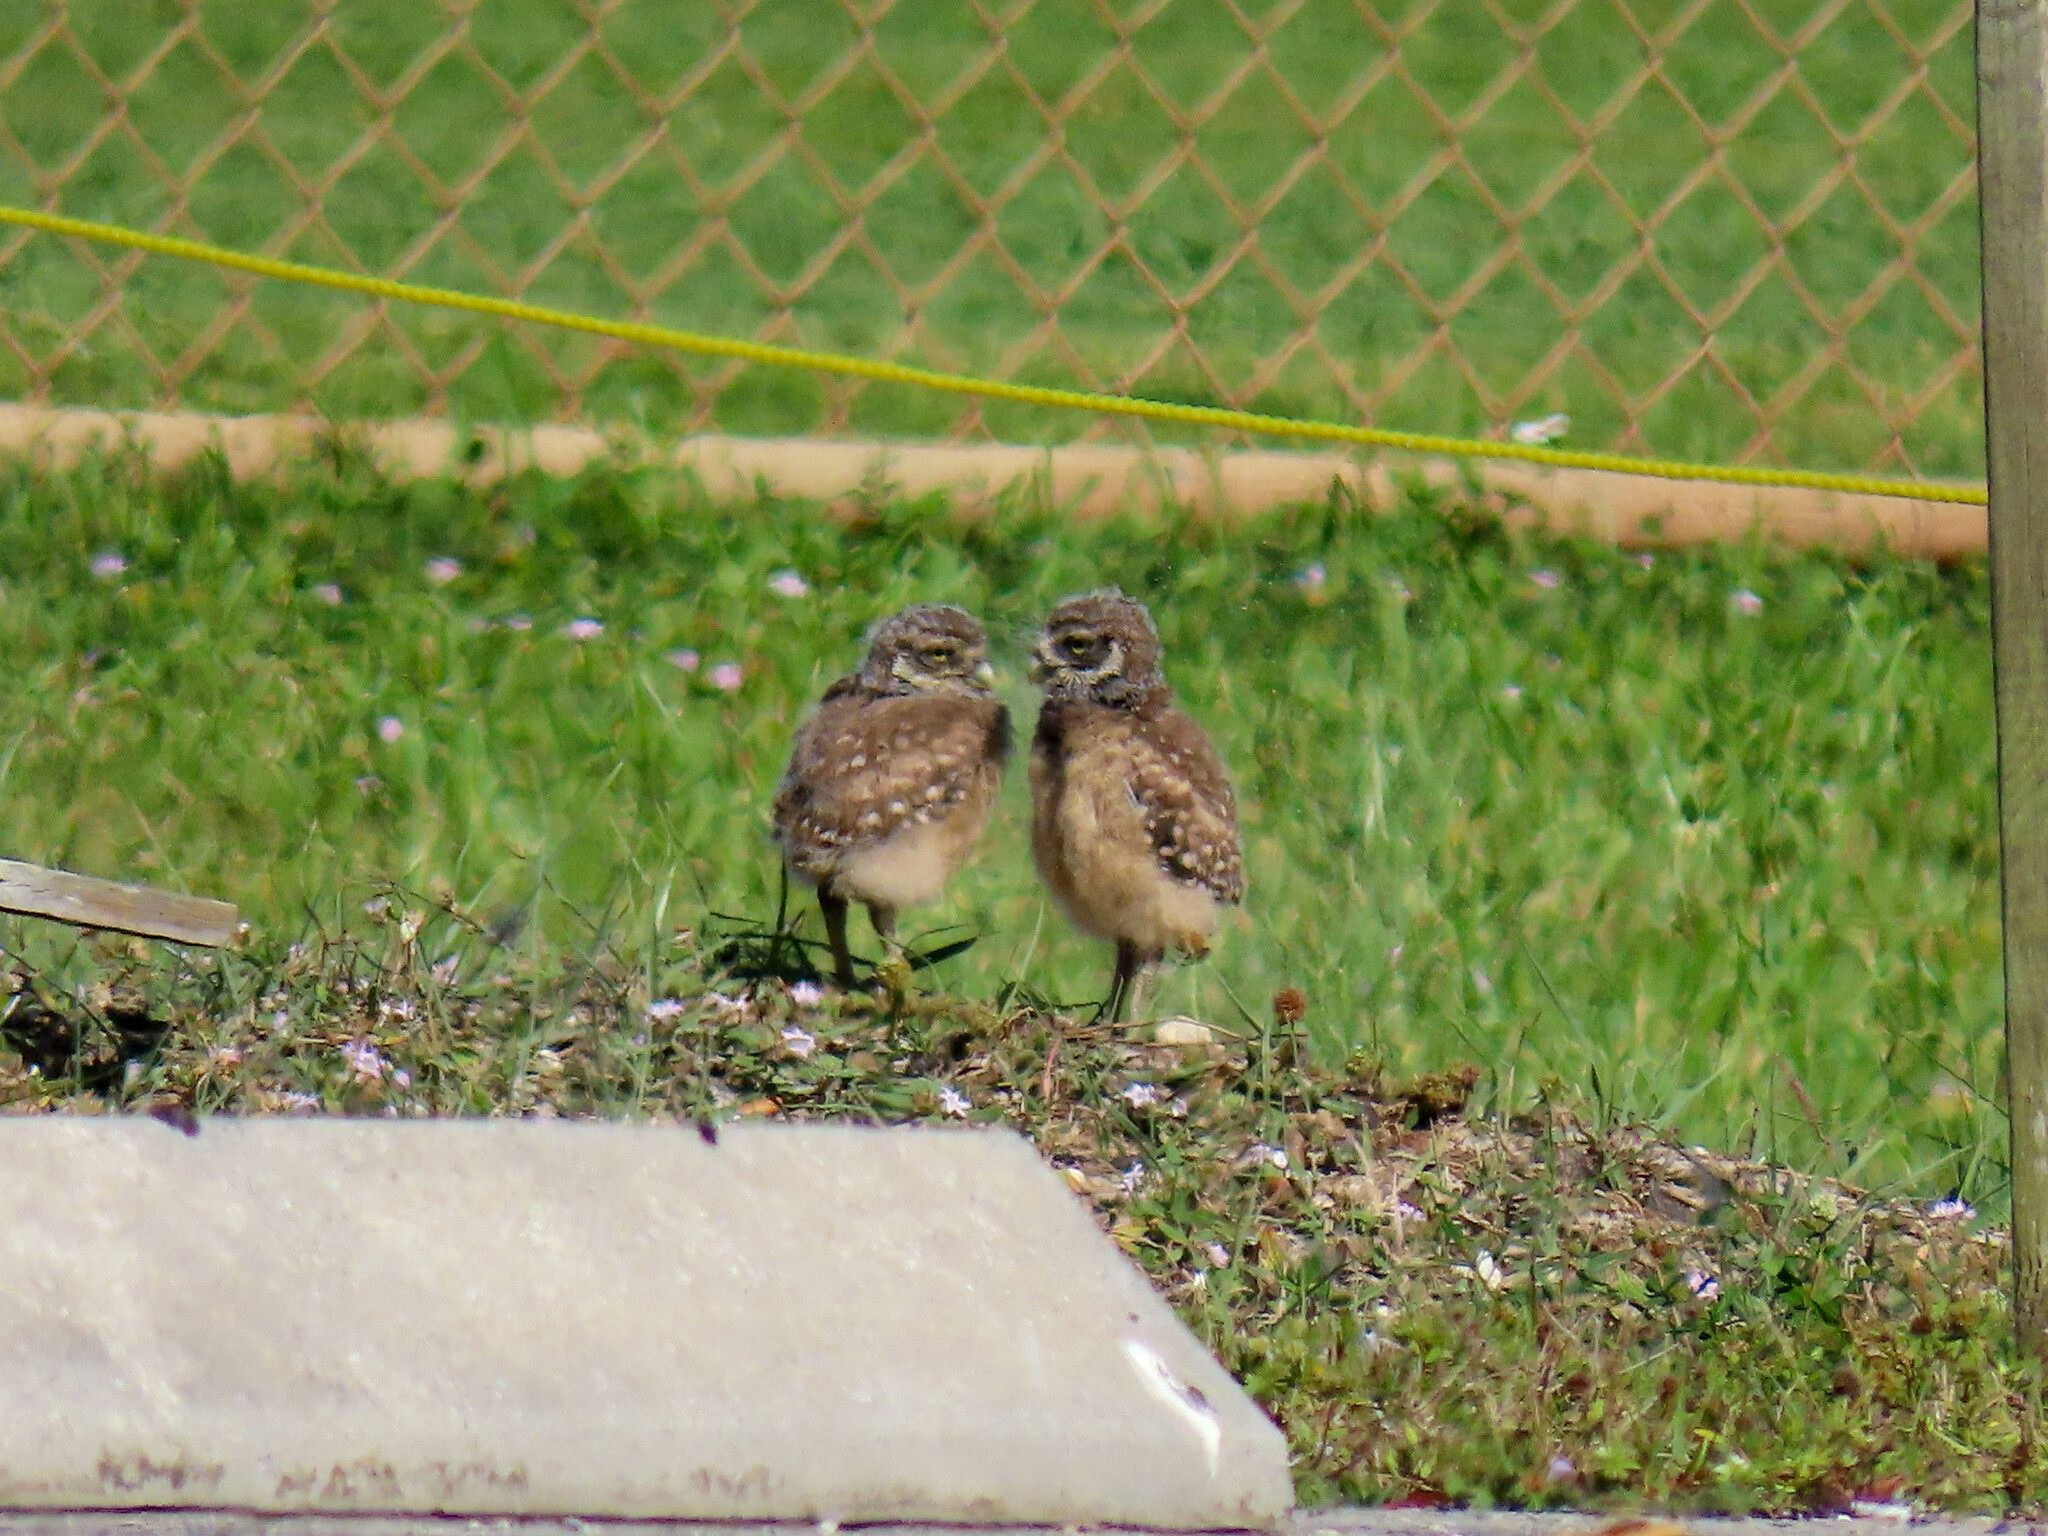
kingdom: Animalia
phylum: Chordata
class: Aves
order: Strigiformes
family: Strigidae
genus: Athene
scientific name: Athene cunicularia
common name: Burrowing owl
